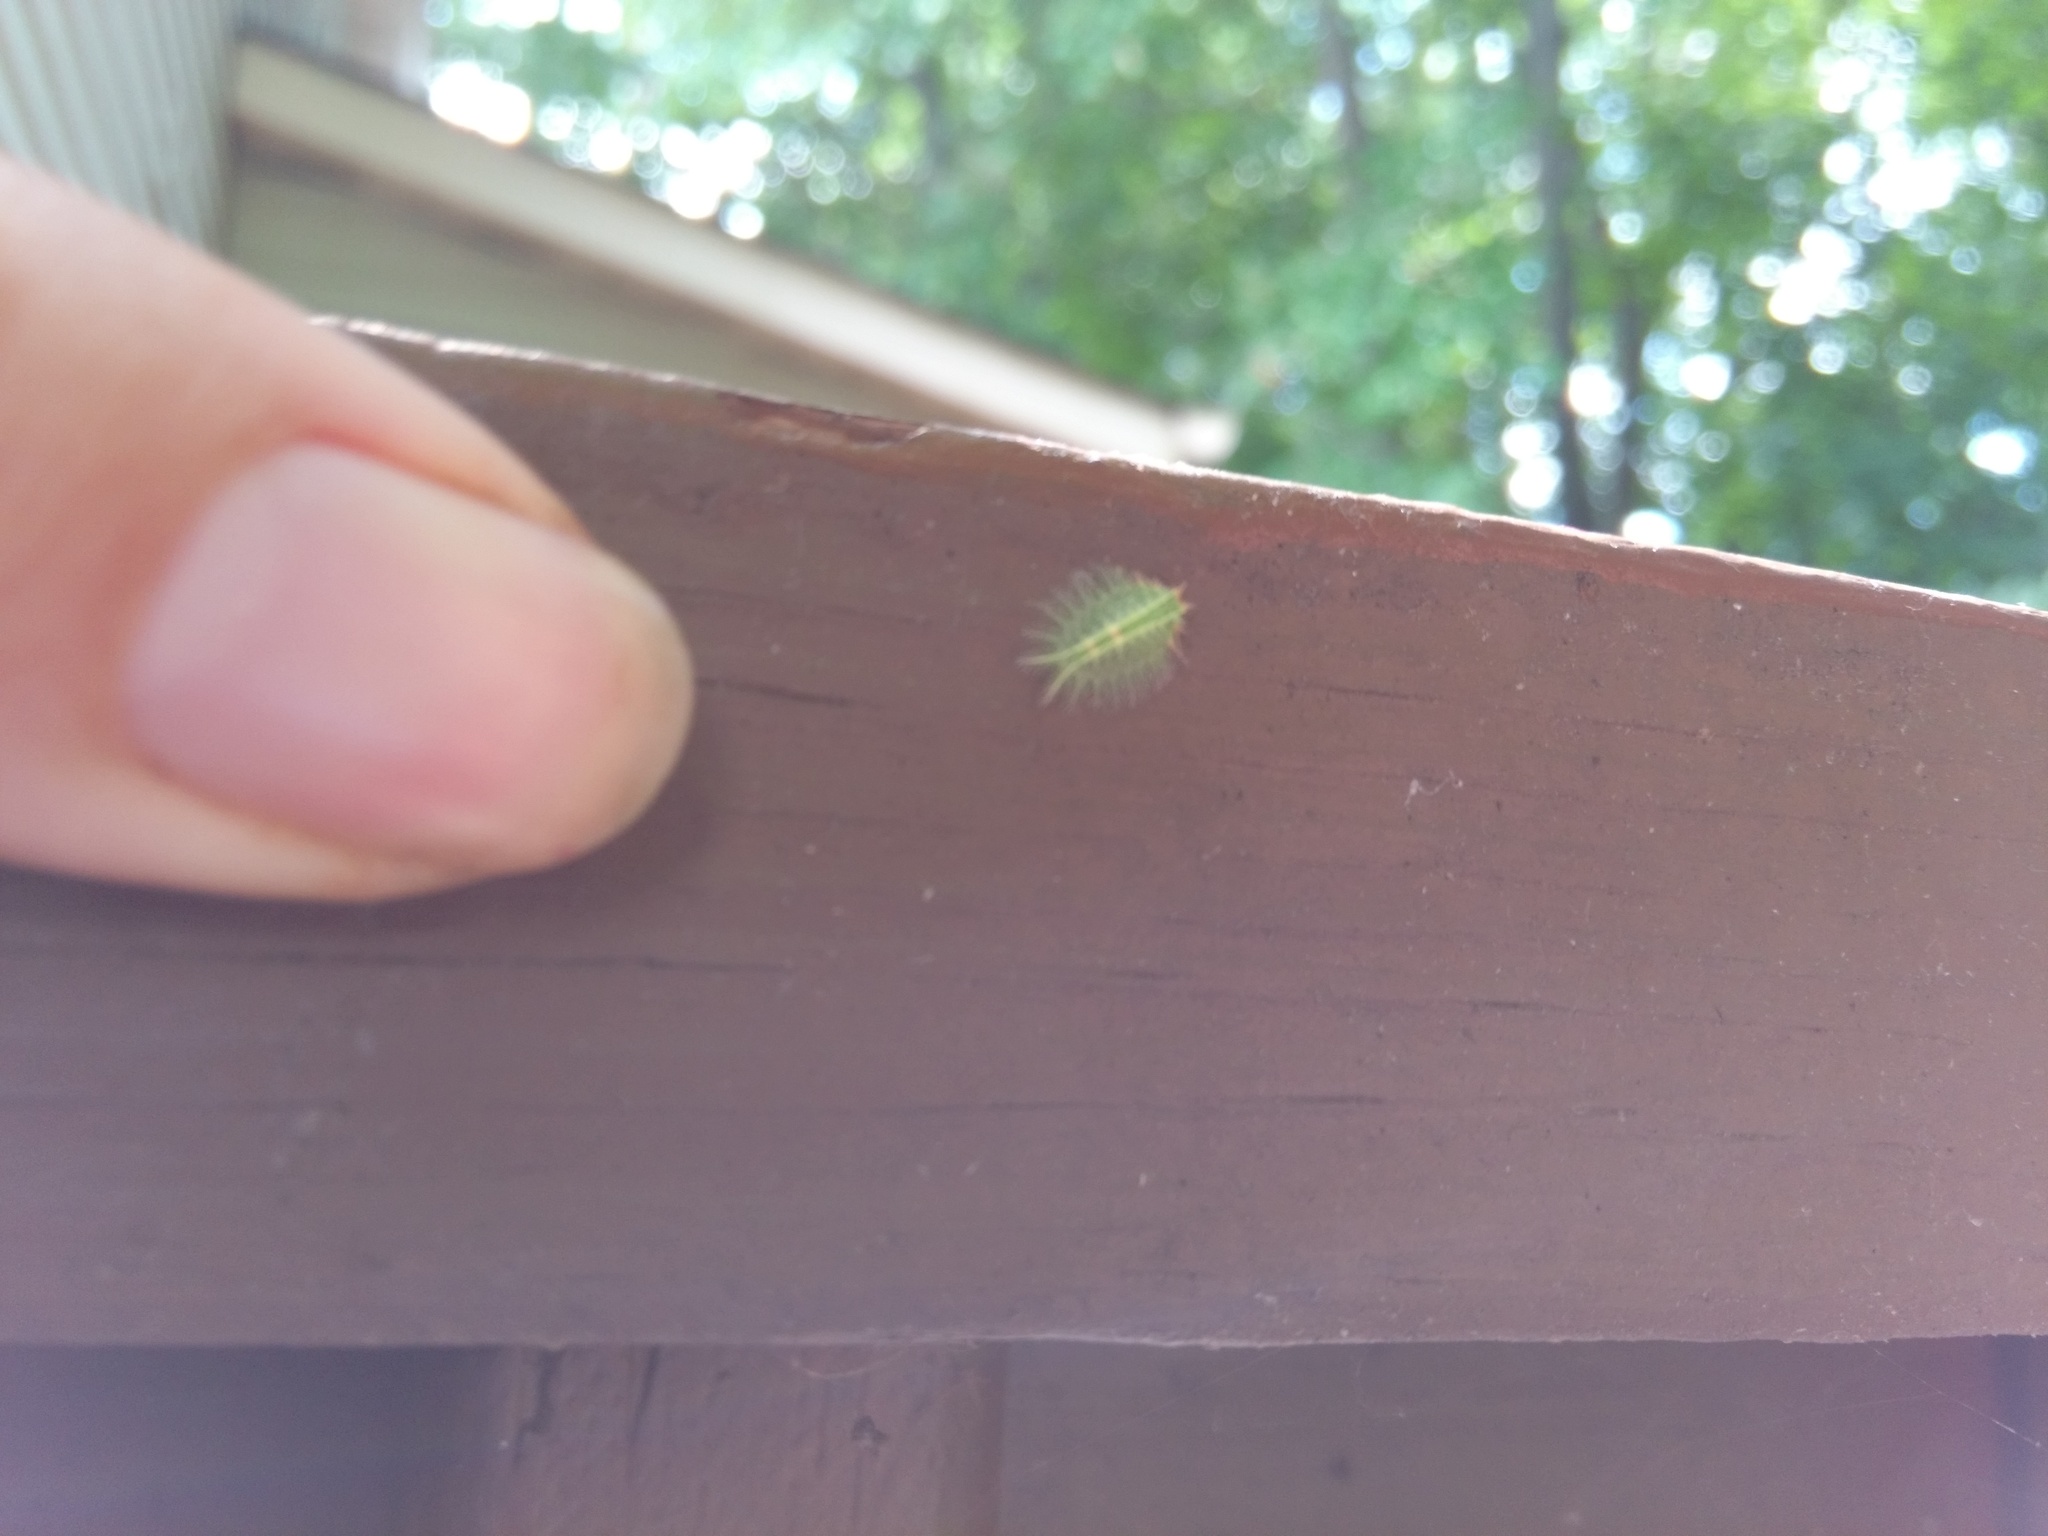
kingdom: Animalia
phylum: Arthropoda
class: Insecta
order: Lepidoptera
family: Limacodidae
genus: Isa
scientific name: Isa textula
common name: Crowned slug moth
